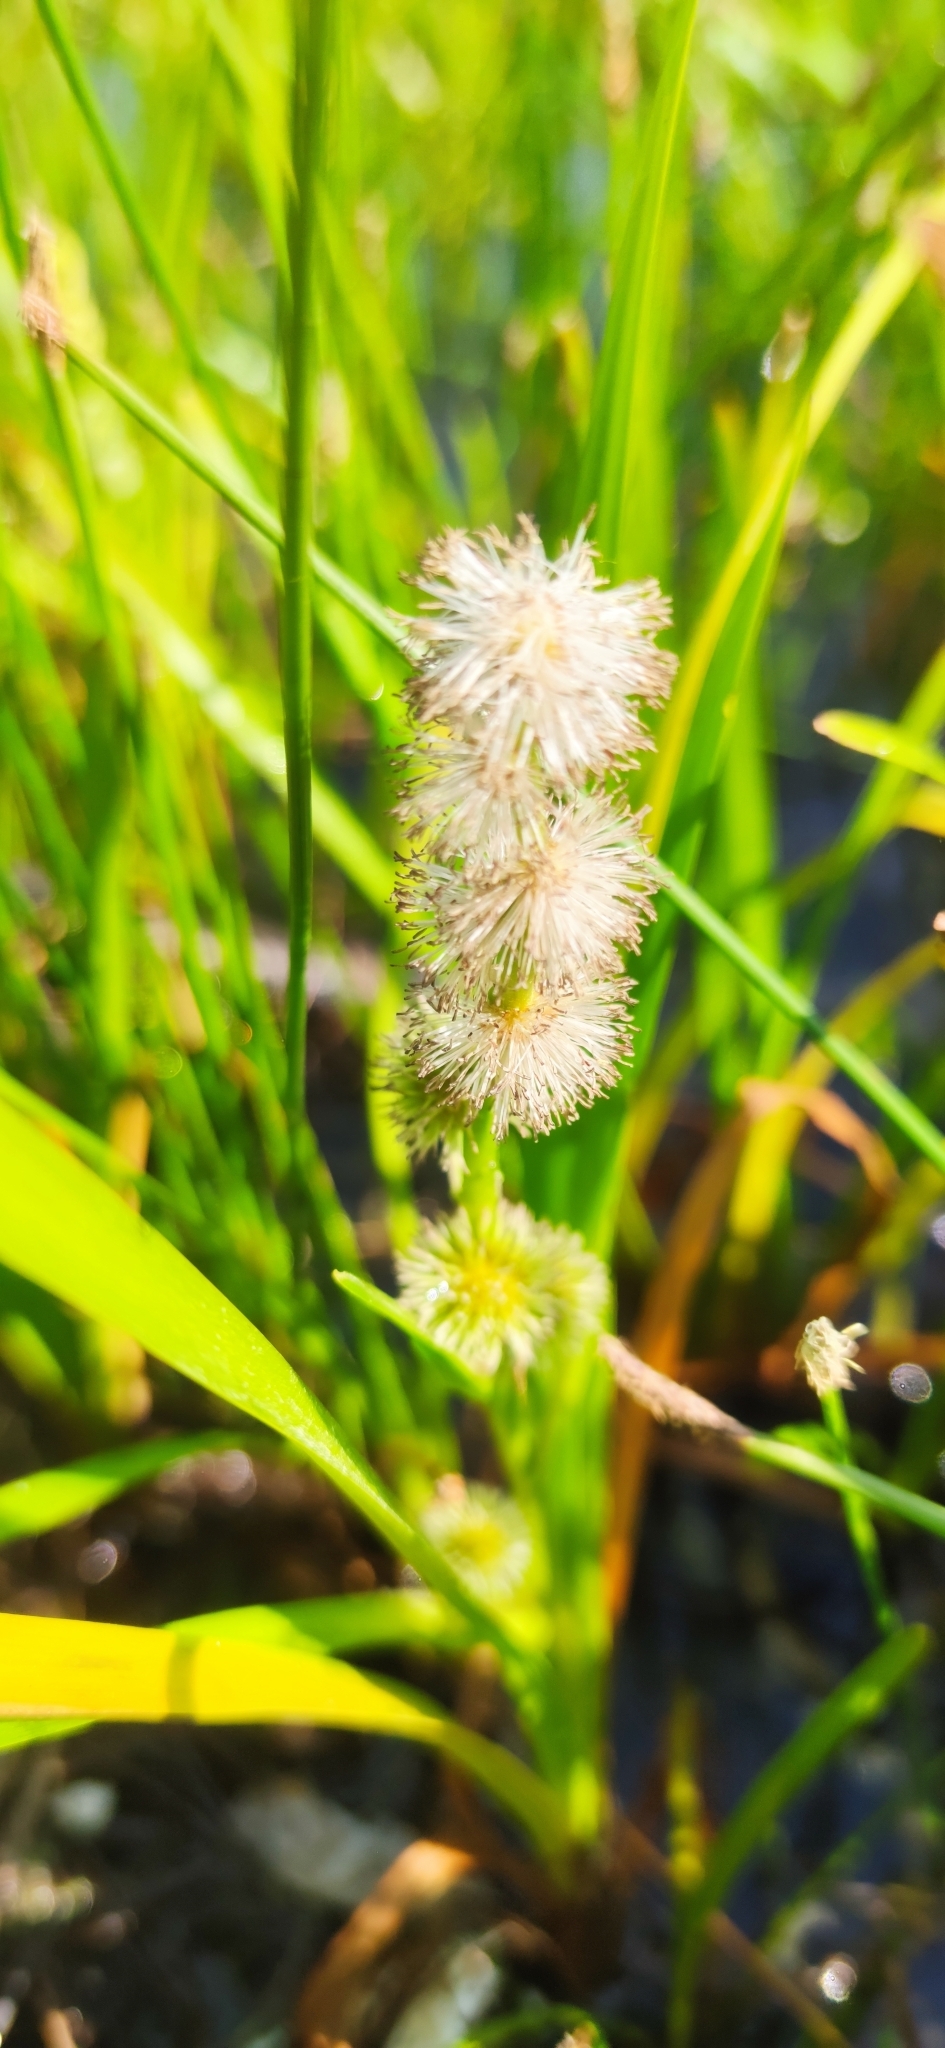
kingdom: Plantae
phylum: Tracheophyta
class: Liliopsida
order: Poales
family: Typhaceae
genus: Sparganium
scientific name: Sparganium emersum
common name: Unbranched bur-reed
